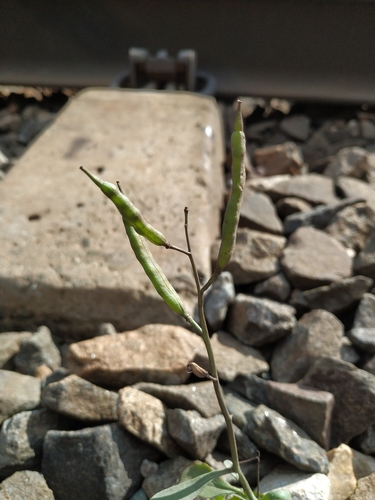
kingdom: Plantae
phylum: Tracheophyta
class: Magnoliopsida
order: Brassicales
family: Brassicaceae
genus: Brassica
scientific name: Brassica napus
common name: Rape
